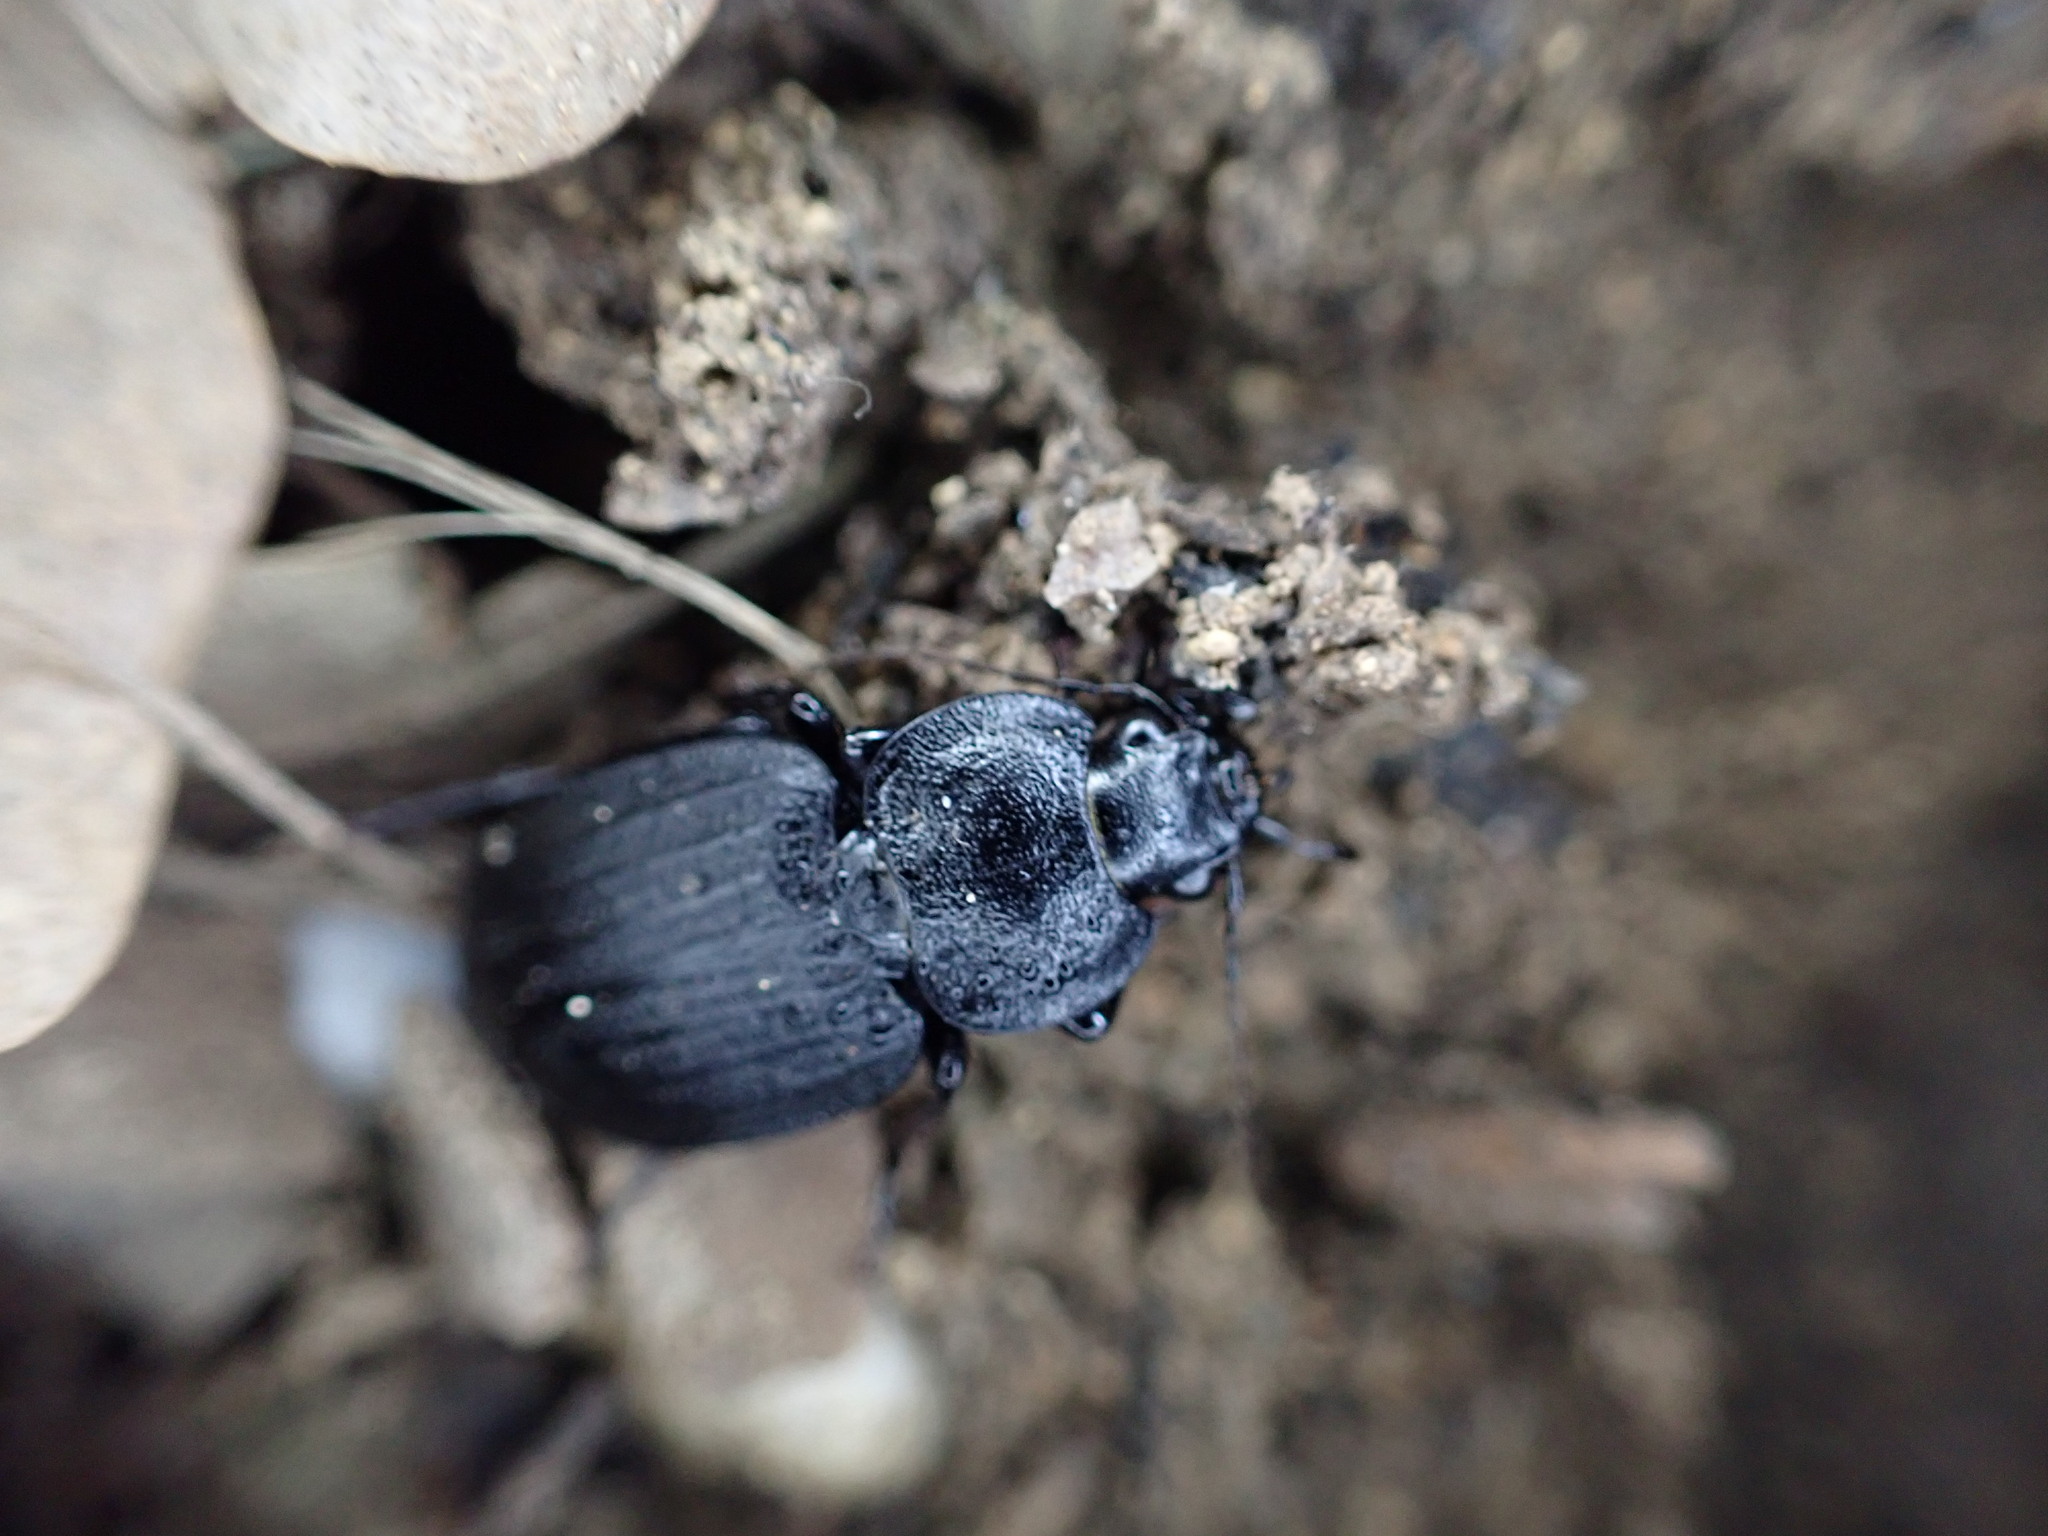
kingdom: Animalia
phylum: Arthropoda
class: Insecta
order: Coleoptera
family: Carabidae
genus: Licinus
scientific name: Licinus silphoides
